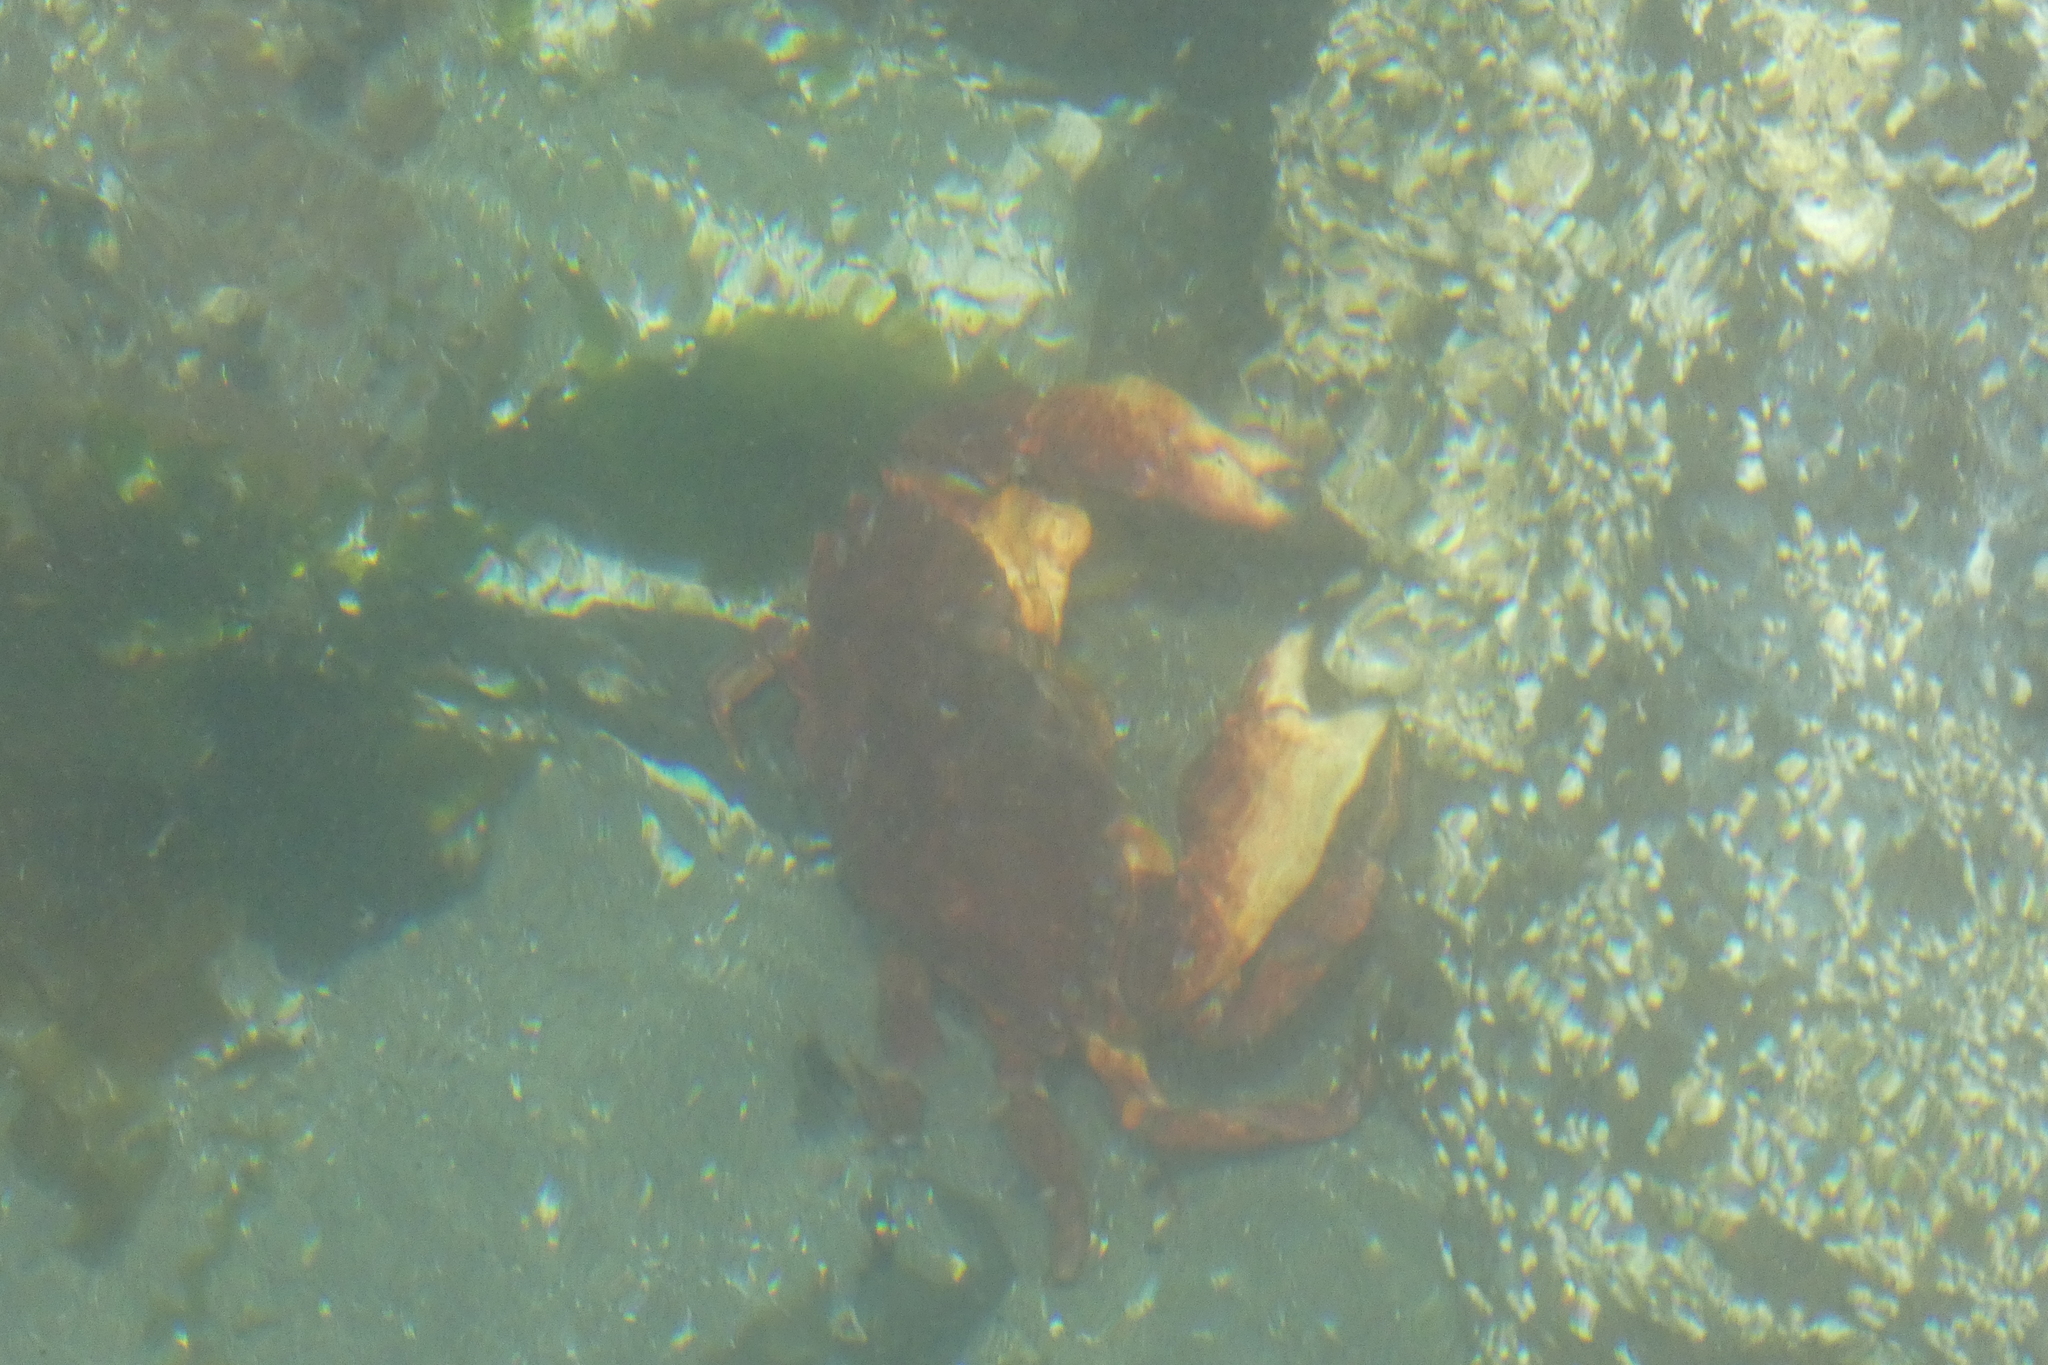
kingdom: Animalia
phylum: Arthropoda
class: Malacostraca
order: Decapoda
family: Cancridae
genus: Cancer
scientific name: Cancer productus
